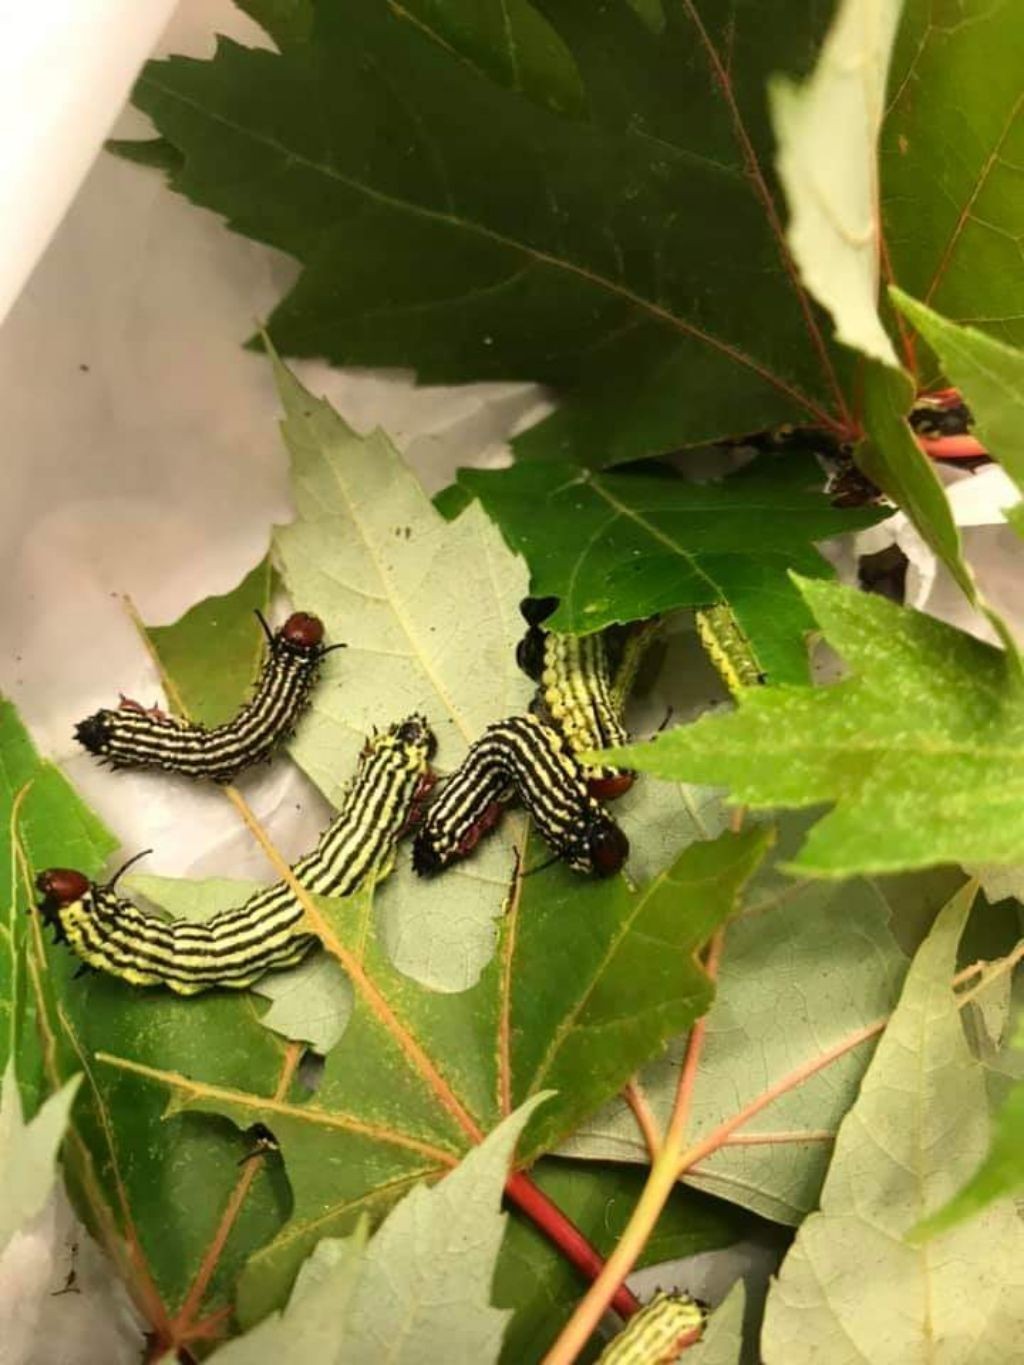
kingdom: Animalia
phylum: Arthropoda
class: Insecta
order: Lepidoptera
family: Saturniidae
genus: Dryocampa
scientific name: Dryocampa rubicunda
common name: Rosy maple moth
